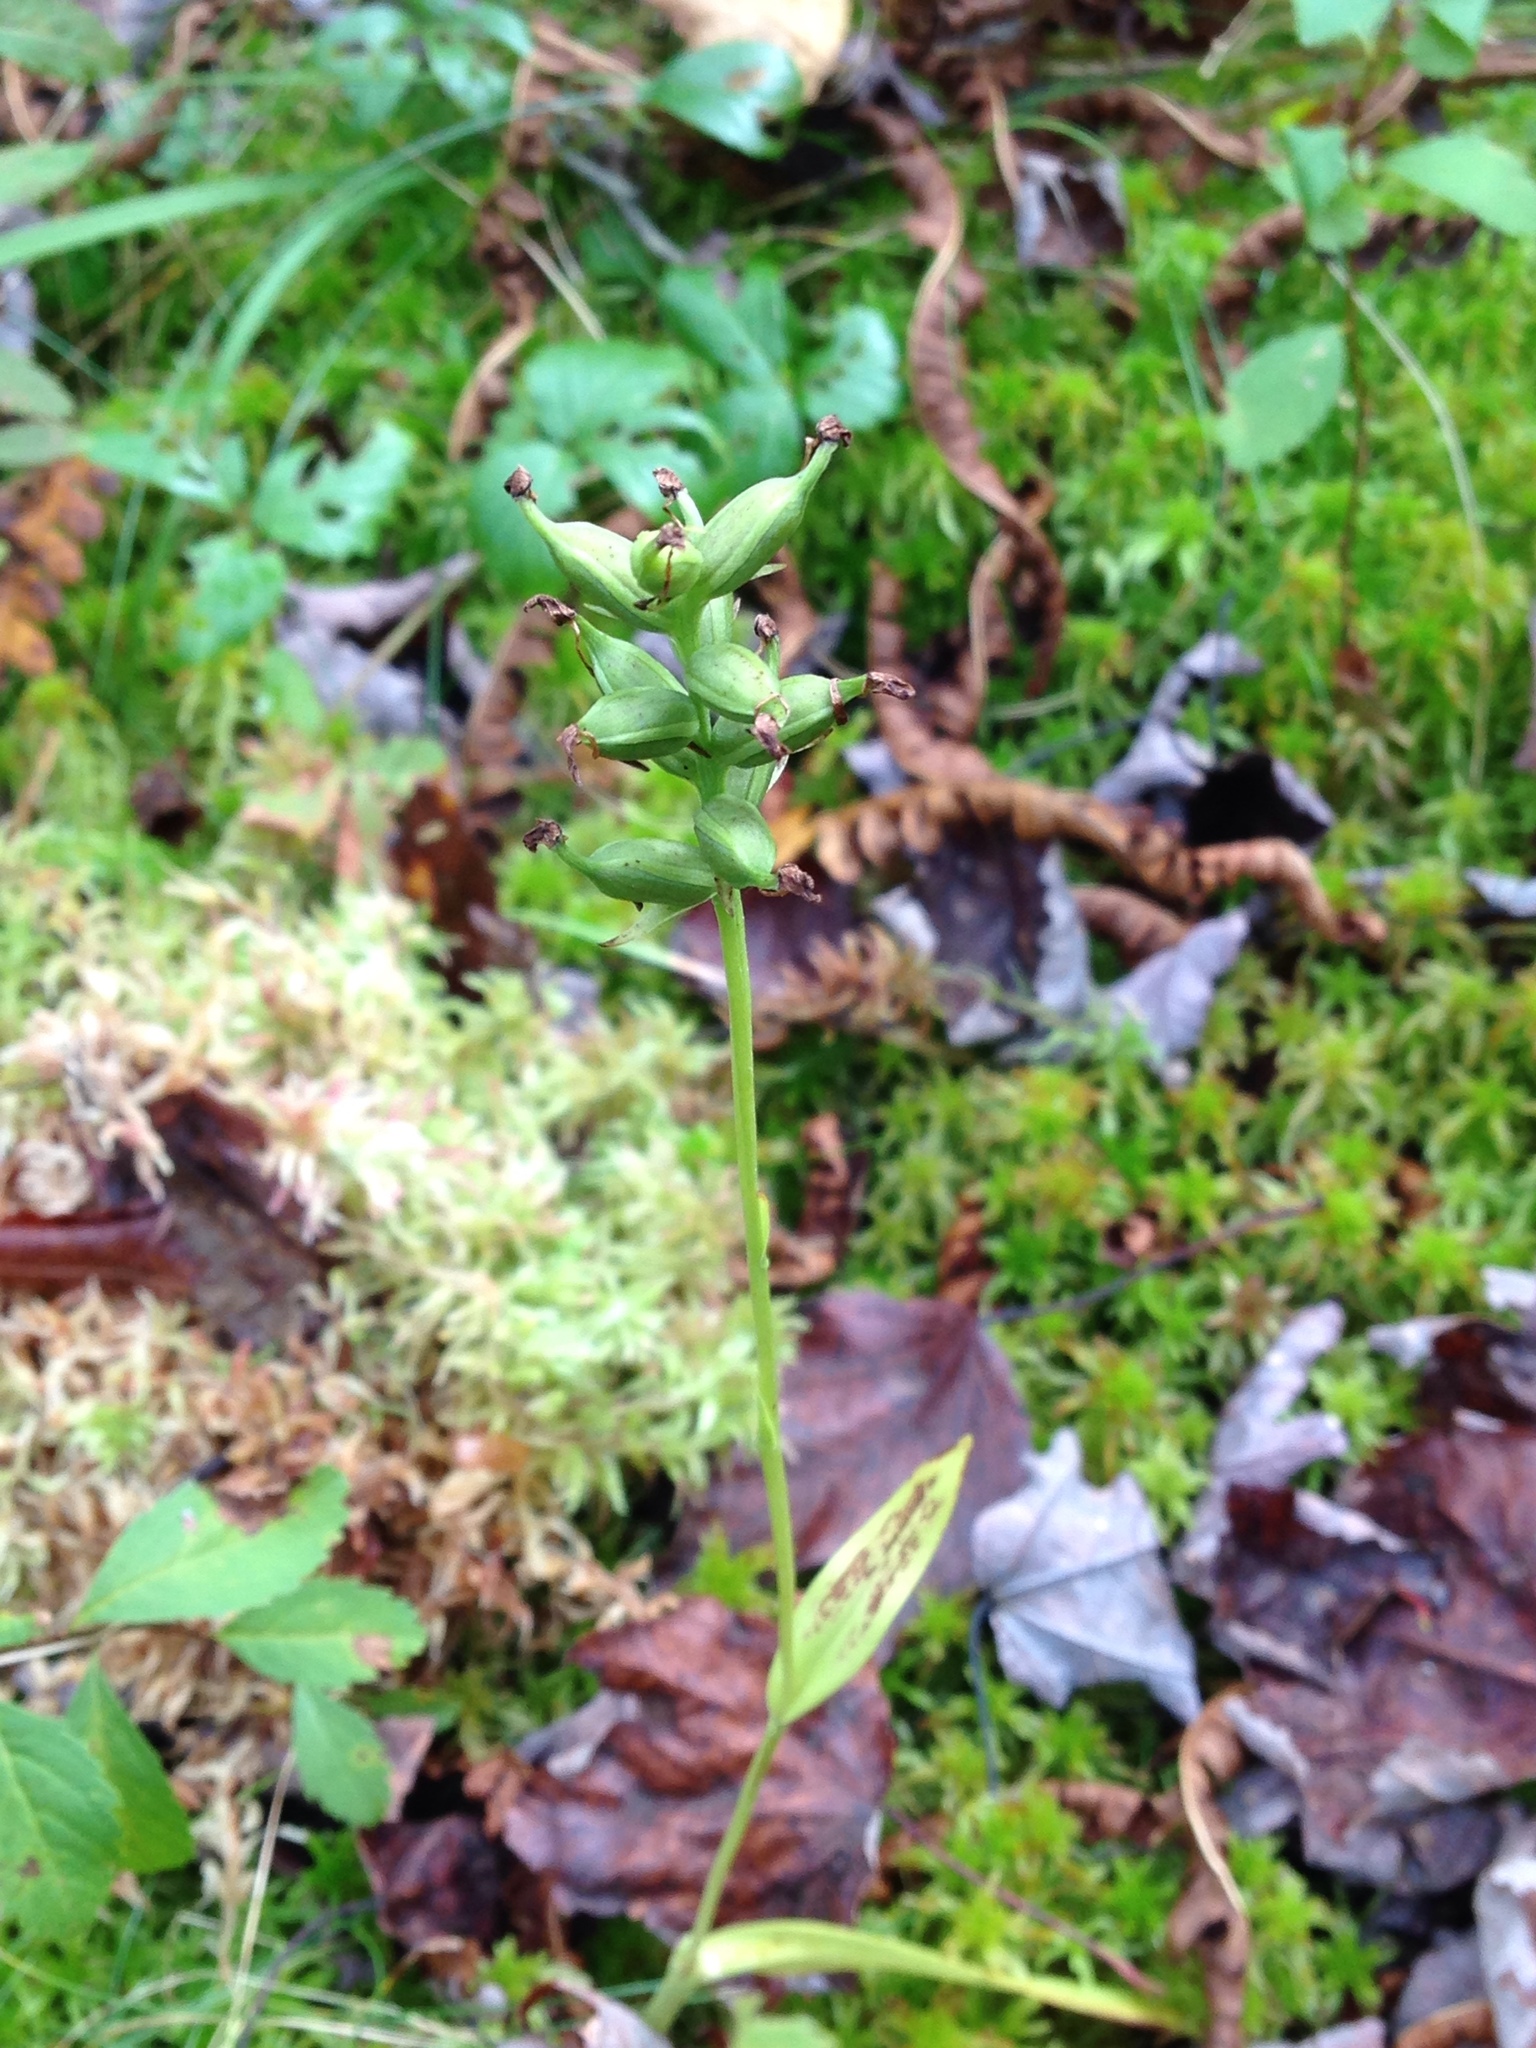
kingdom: Plantae
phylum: Tracheophyta
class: Liliopsida
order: Asparagales
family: Orchidaceae
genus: Platanthera
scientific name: Platanthera clavellata
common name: Club-spur orchid
